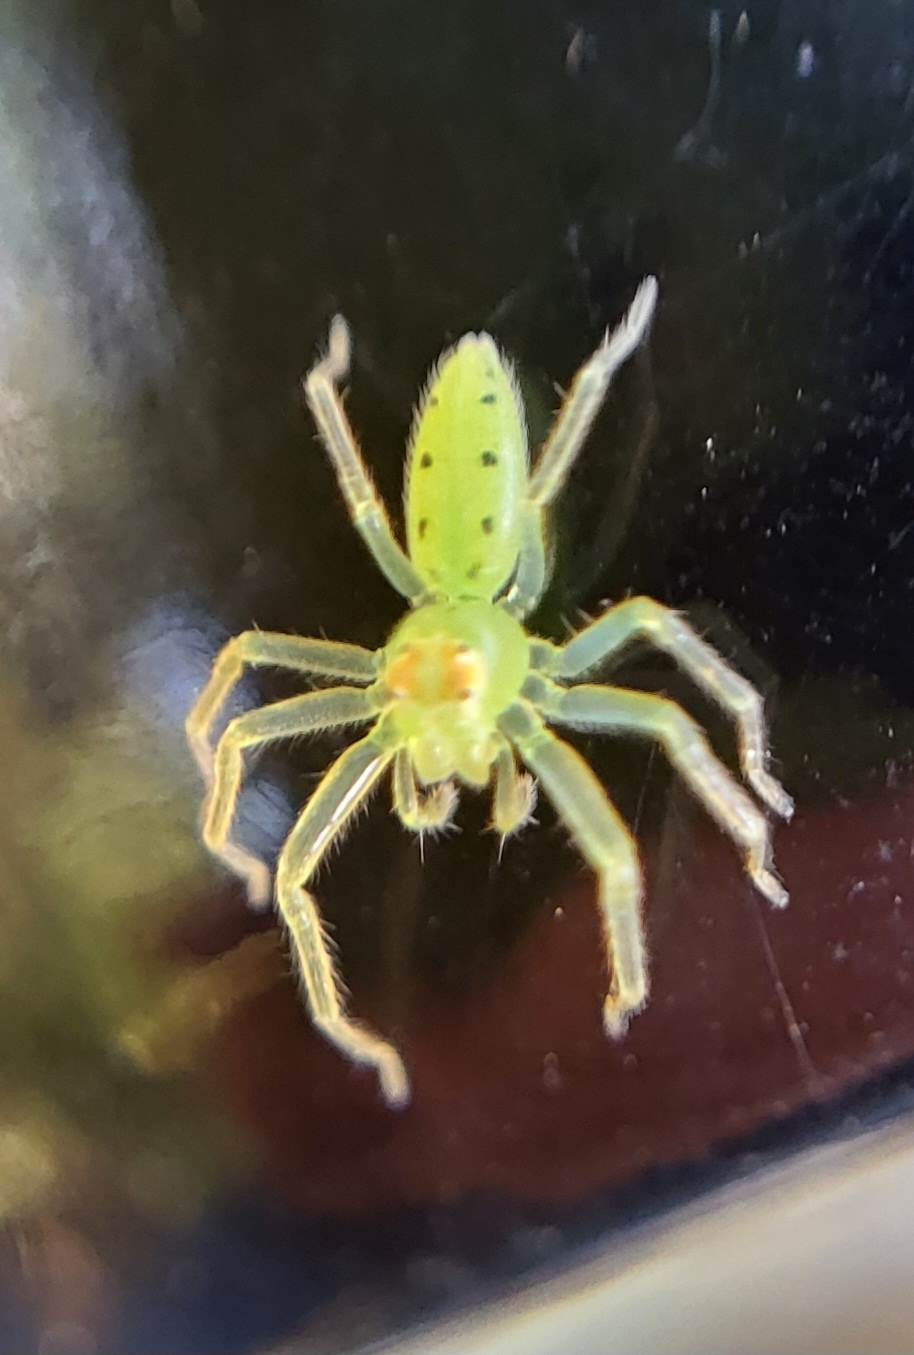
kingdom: Animalia
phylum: Arthropoda
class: Arachnida
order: Araneae
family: Salticidae
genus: Lyssomanes
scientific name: Lyssomanes viridis
